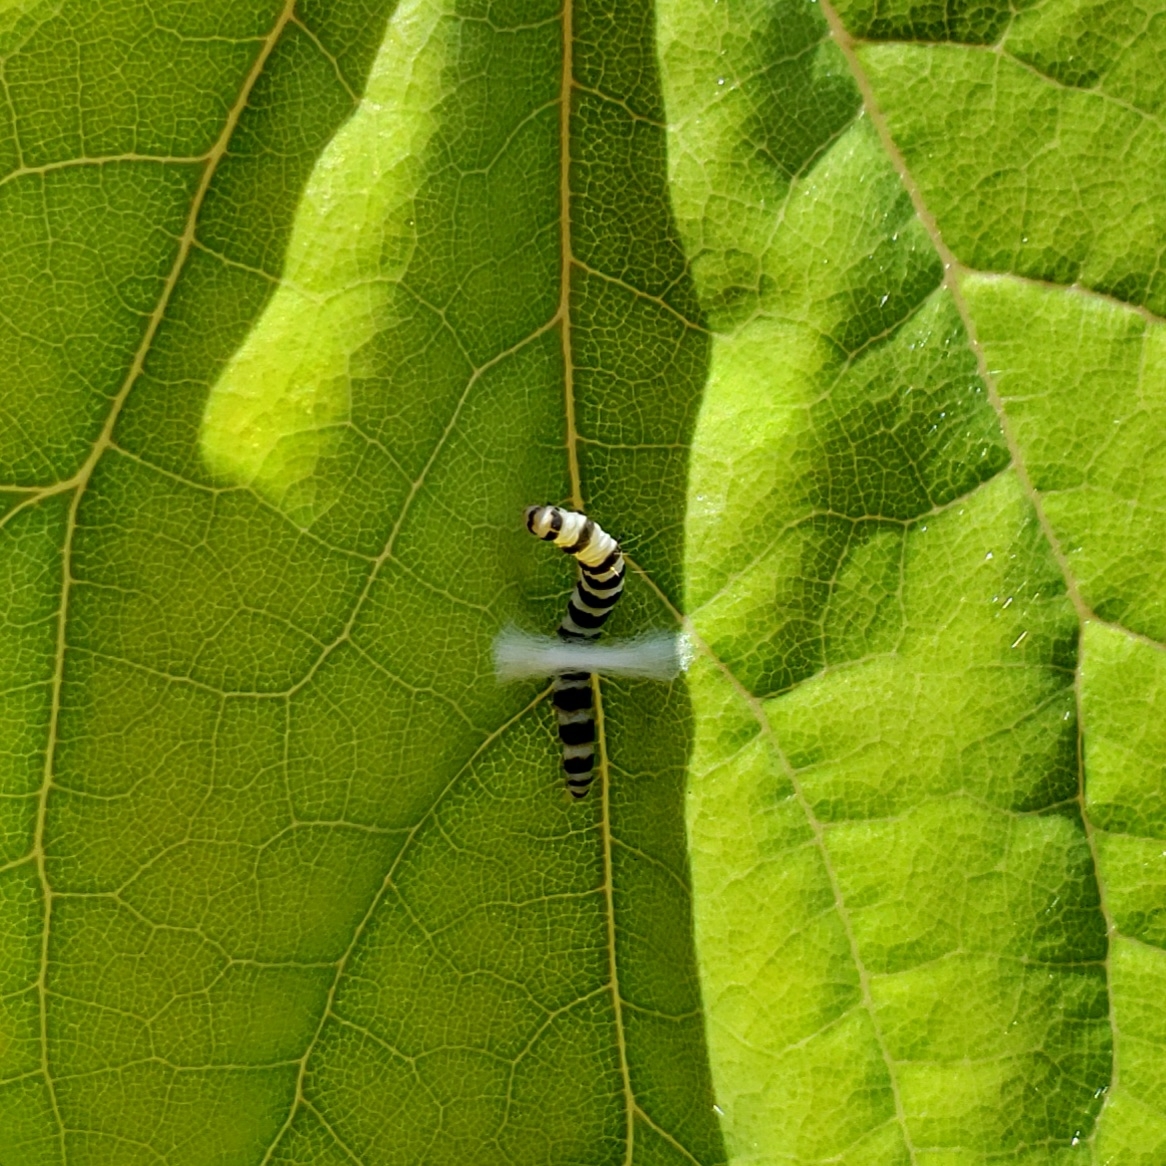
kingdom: Animalia
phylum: Arthropoda
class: Insecta
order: Lepidoptera
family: Gelechiidae
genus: Fascista
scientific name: Fascista cercerisella
